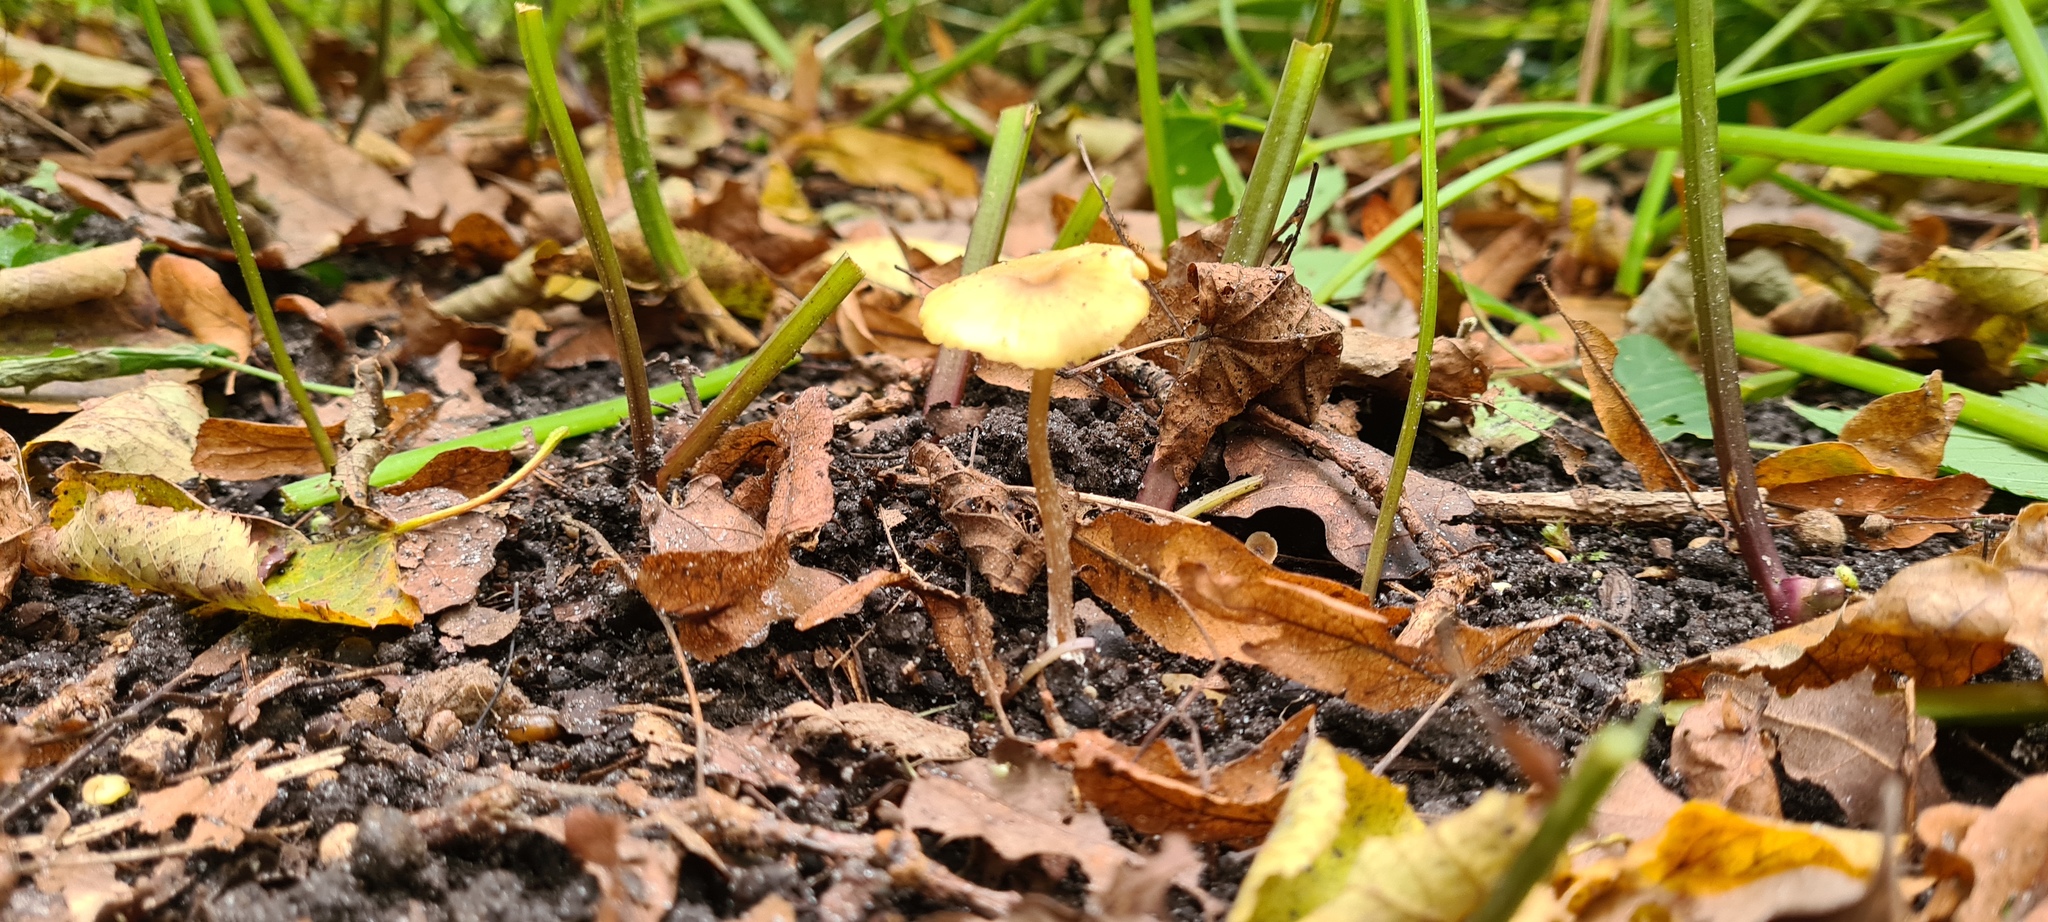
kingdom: Fungi
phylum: Basidiomycota
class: Agaricomycetes
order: Agaricales
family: Entolomataceae
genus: Entoloma
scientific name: Entoloma pleopodium
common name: Aromatic pinkgill
